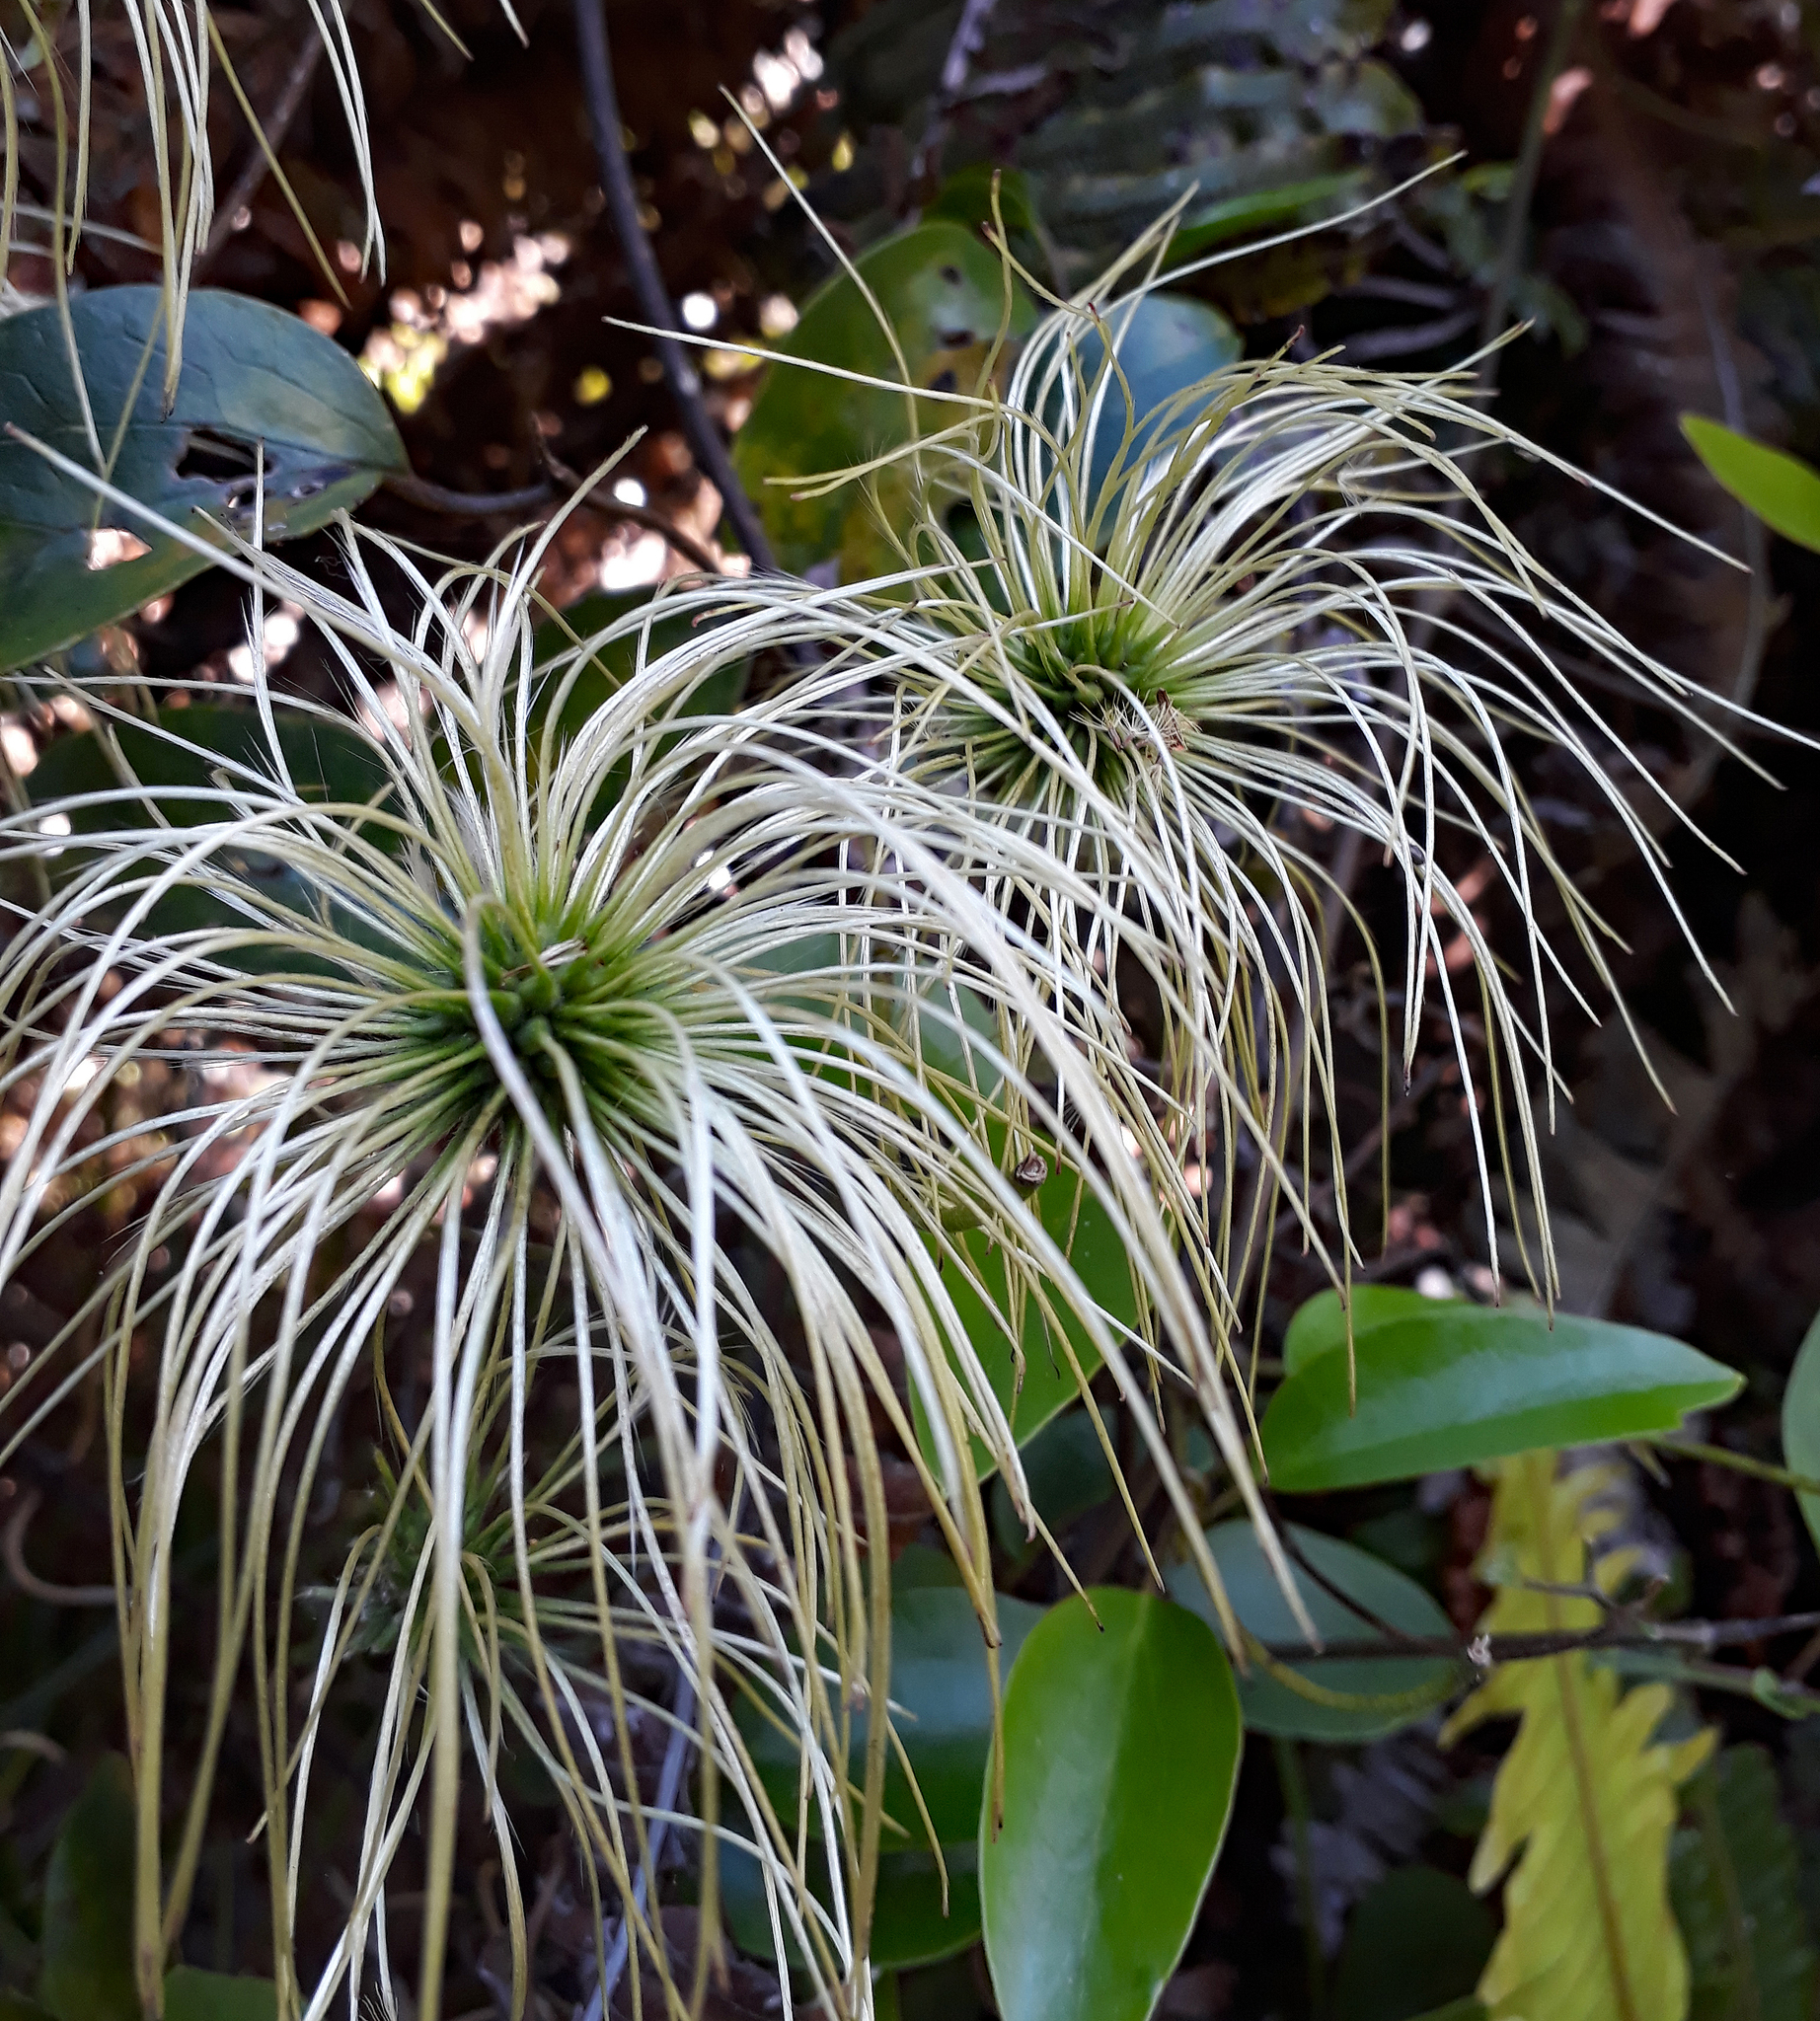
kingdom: Plantae
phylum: Tracheophyta
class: Magnoliopsida
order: Ranunculales
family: Ranunculaceae
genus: Clematis
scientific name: Clematis paniculata
